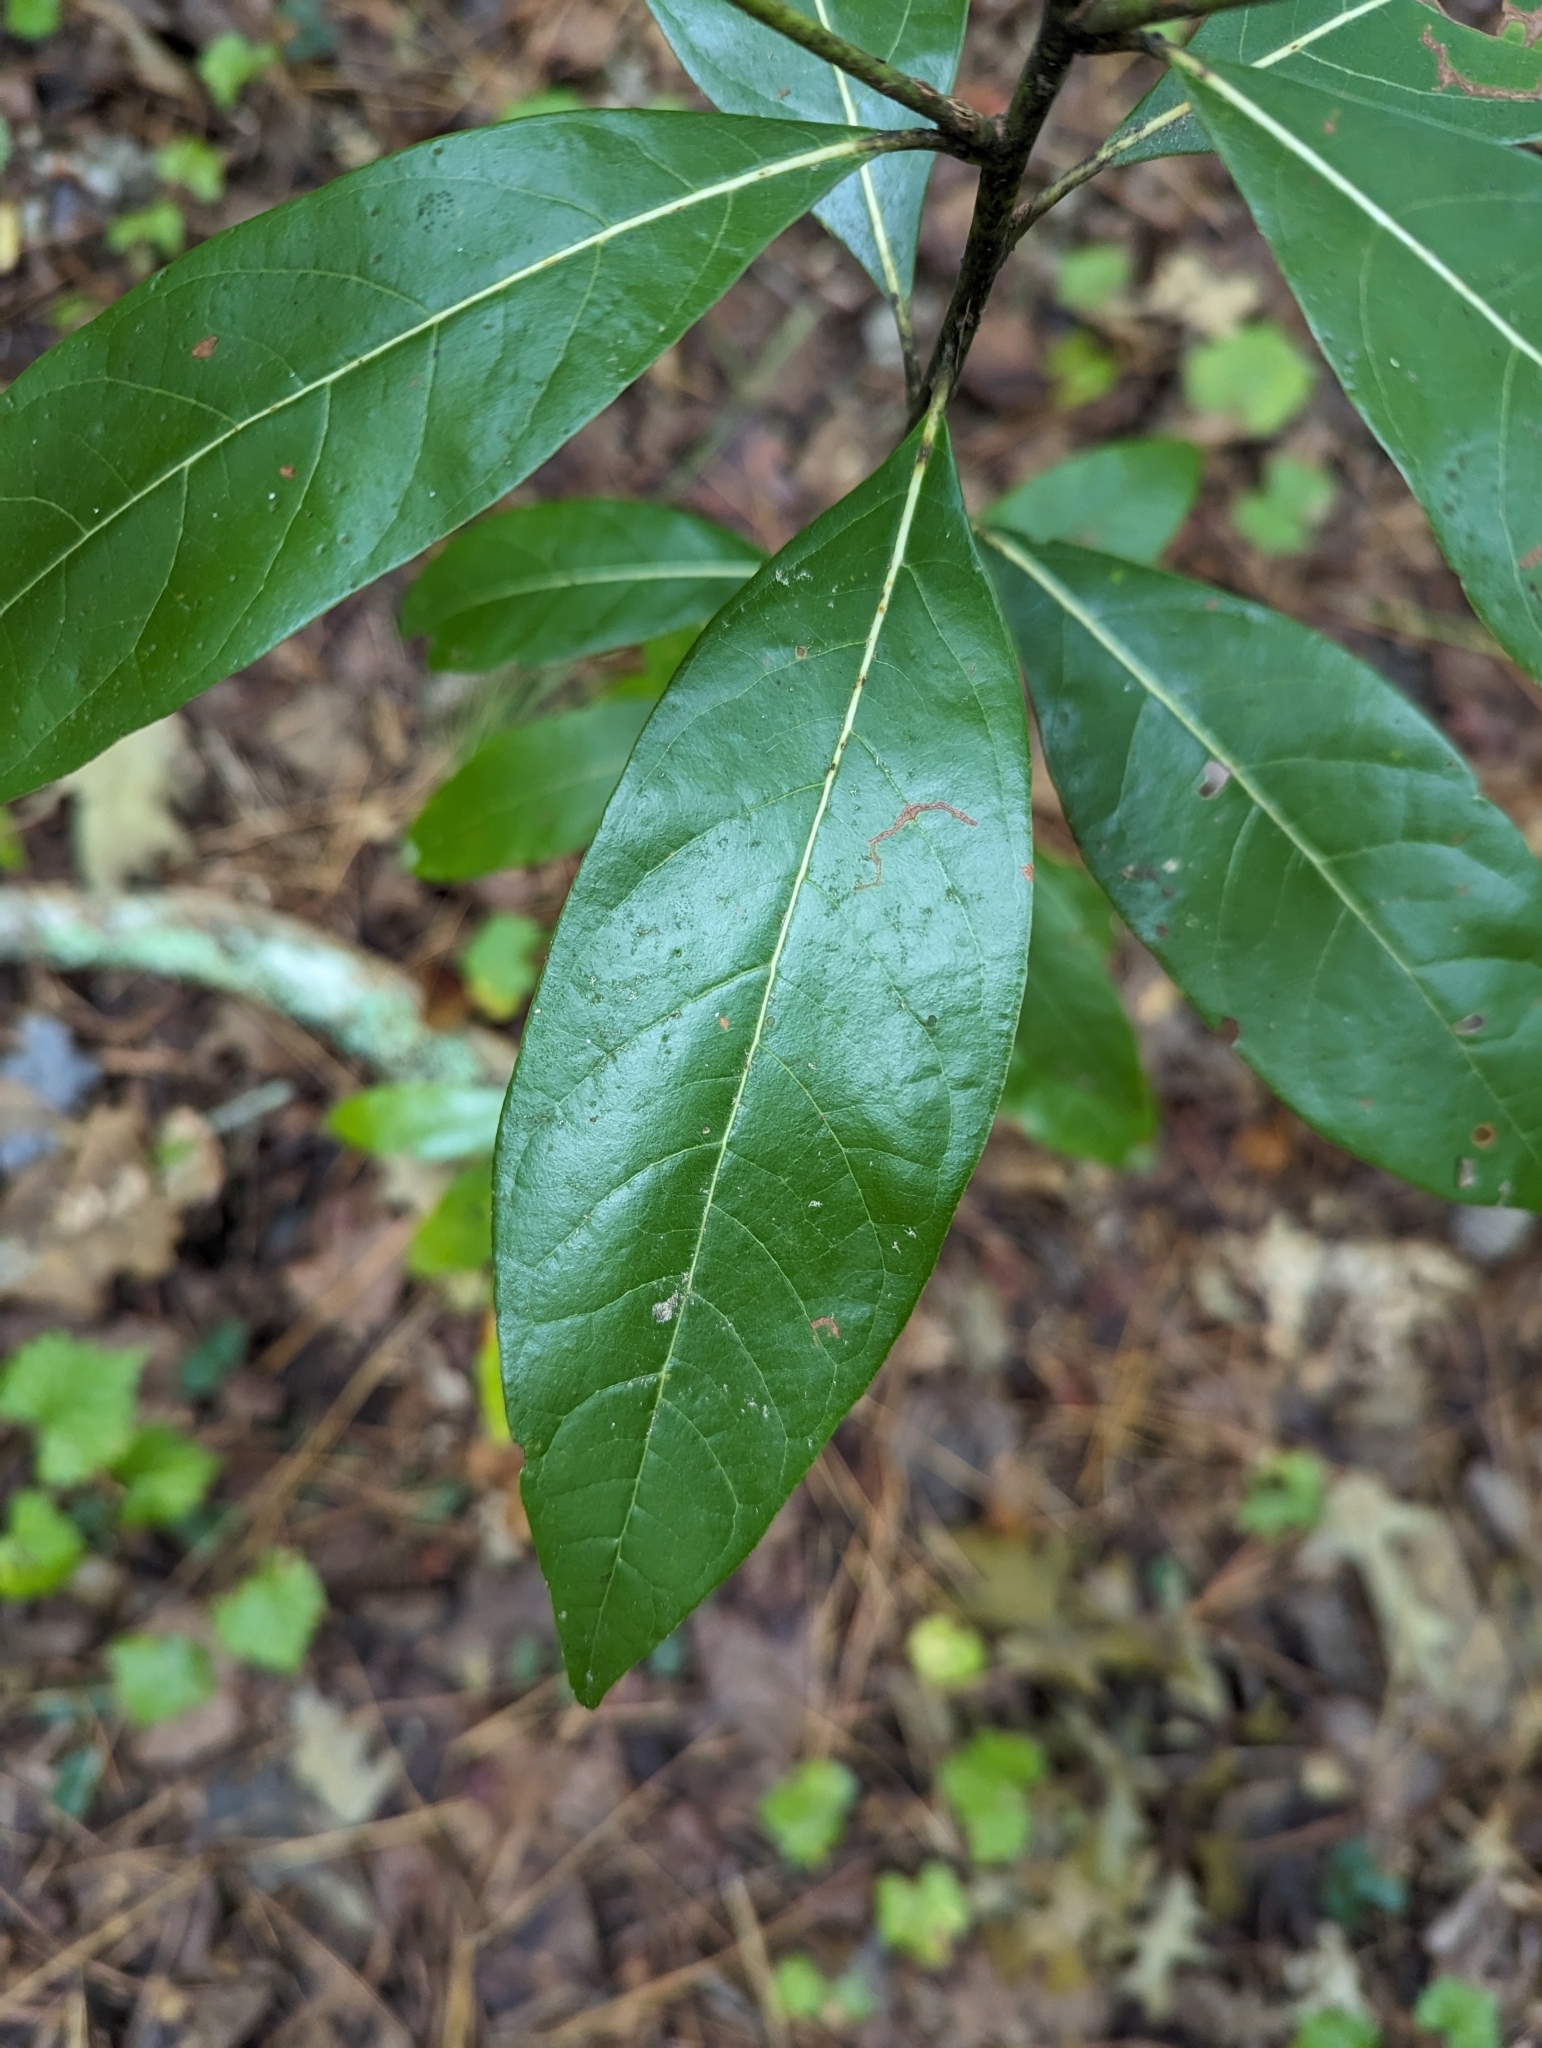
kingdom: Plantae
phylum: Tracheophyta
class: Magnoliopsida
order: Laurales
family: Lauraceae
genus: Persea
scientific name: Persea palustris
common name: Swampbay
